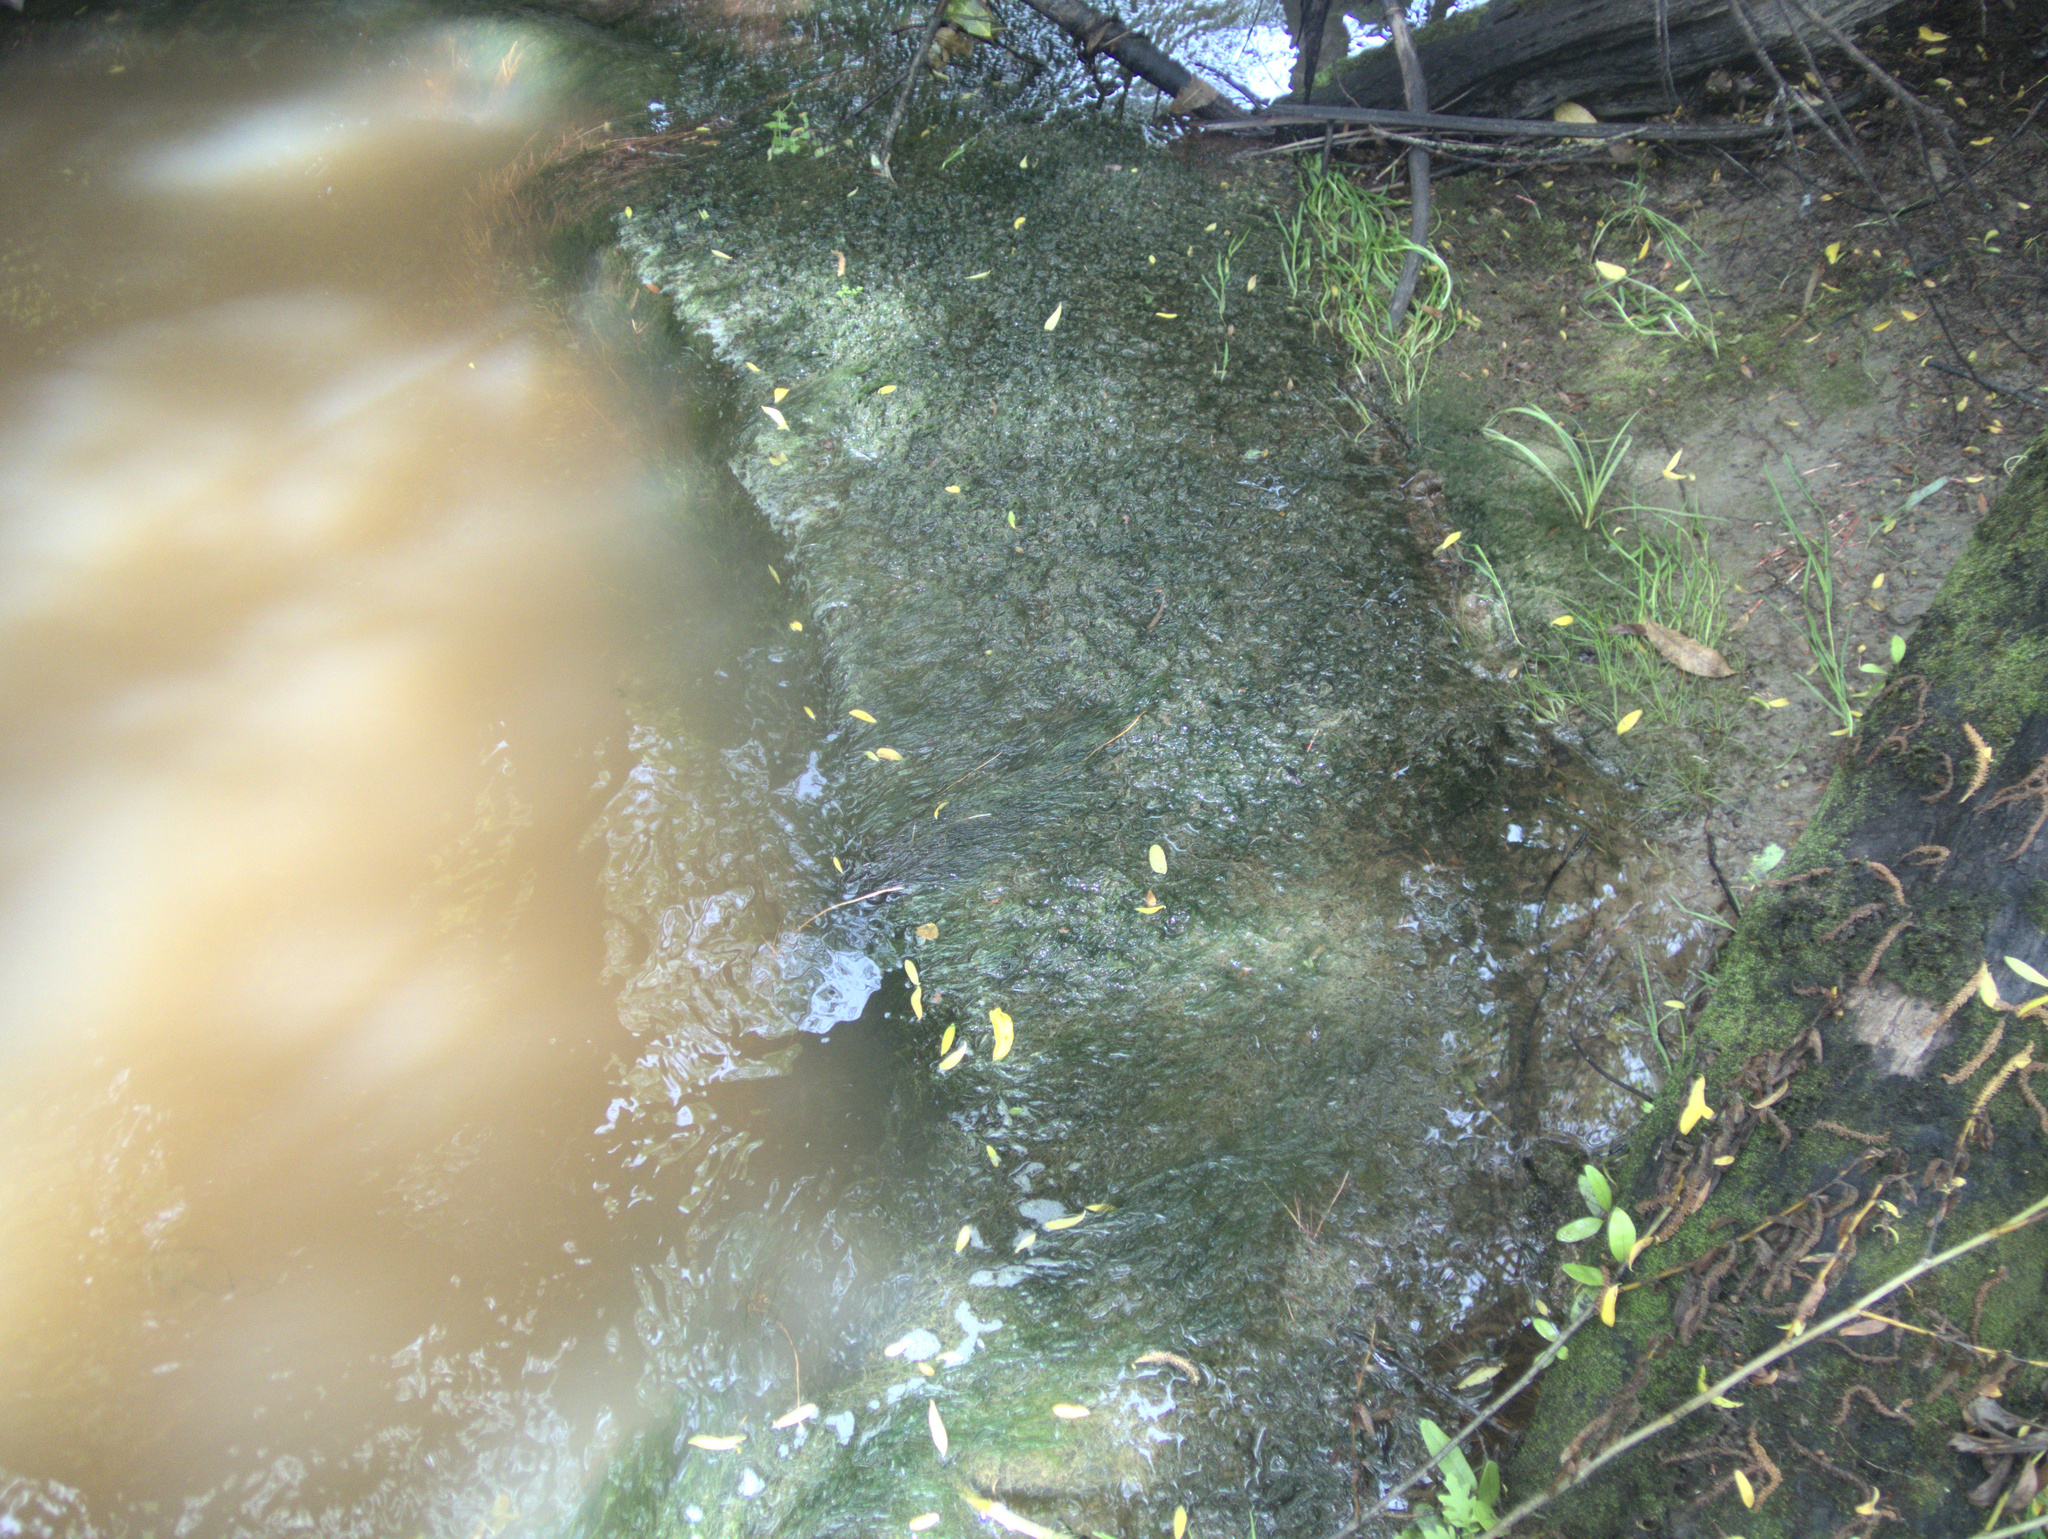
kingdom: Plantae
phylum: Charophyta
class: Charophyceae
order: Charales
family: Characeae
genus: Nitella
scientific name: Nitella
